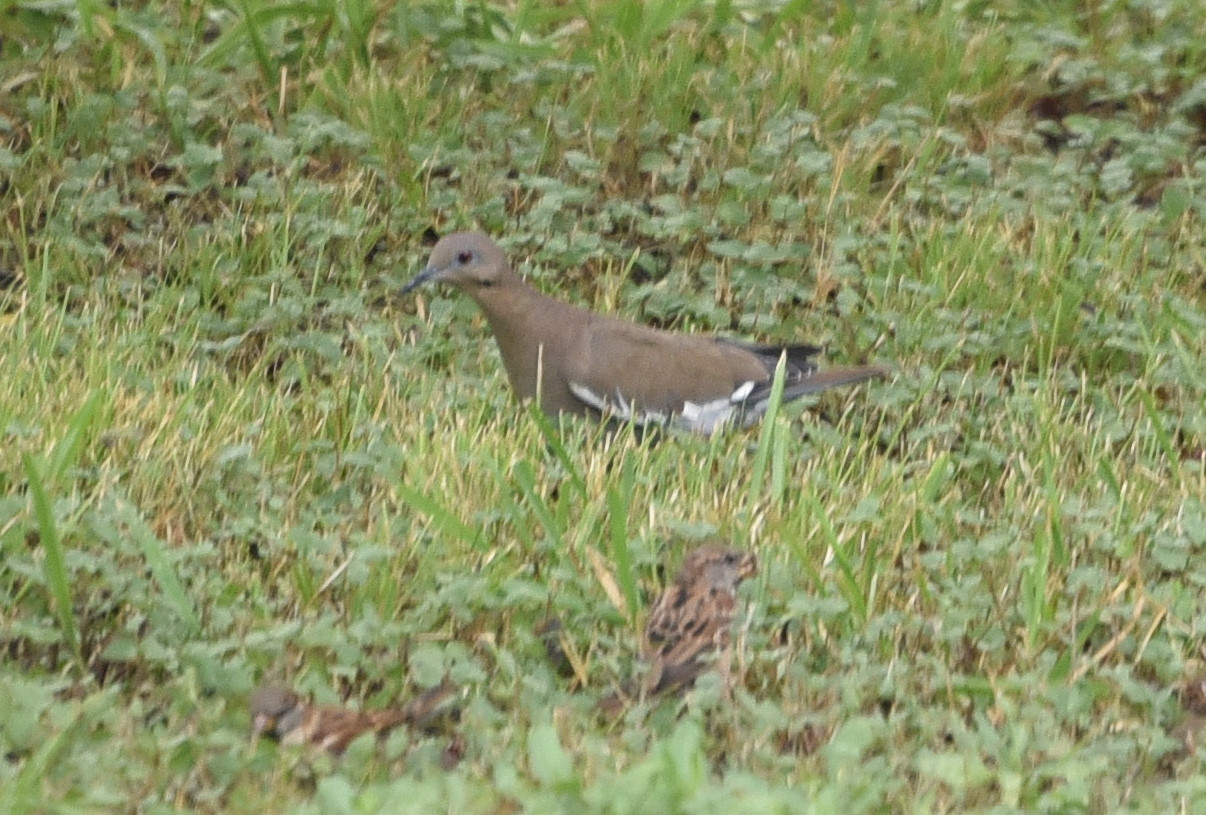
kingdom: Animalia
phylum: Chordata
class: Aves
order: Columbiformes
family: Columbidae
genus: Zenaida
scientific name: Zenaida asiatica
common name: White-winged dove
